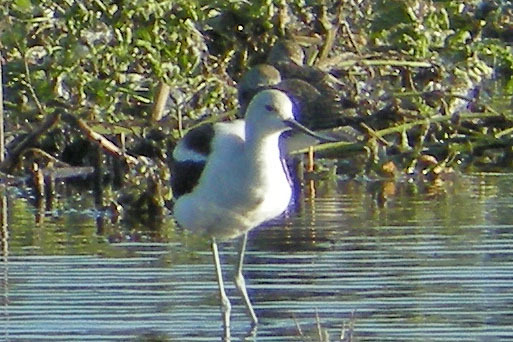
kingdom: Animalia
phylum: Chordata
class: Aves
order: Charadriiformes
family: Recurvirostridae
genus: Recurvirostra
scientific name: Recurvirostra americana
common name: American avocet
